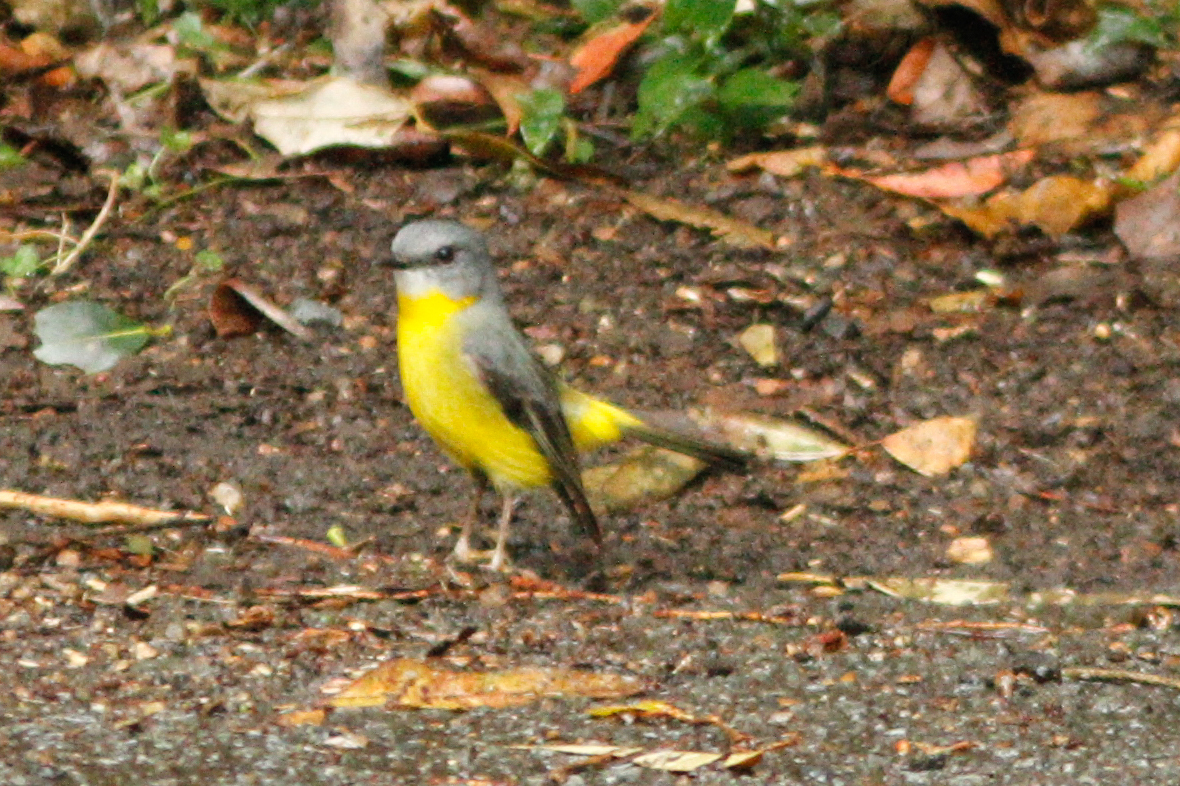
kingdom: Animalia
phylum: Chordata
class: Aves
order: Passeriformes
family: Petroicidae
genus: Eopsaltria
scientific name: Eopsaltria australis
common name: Eastern yellow robin
